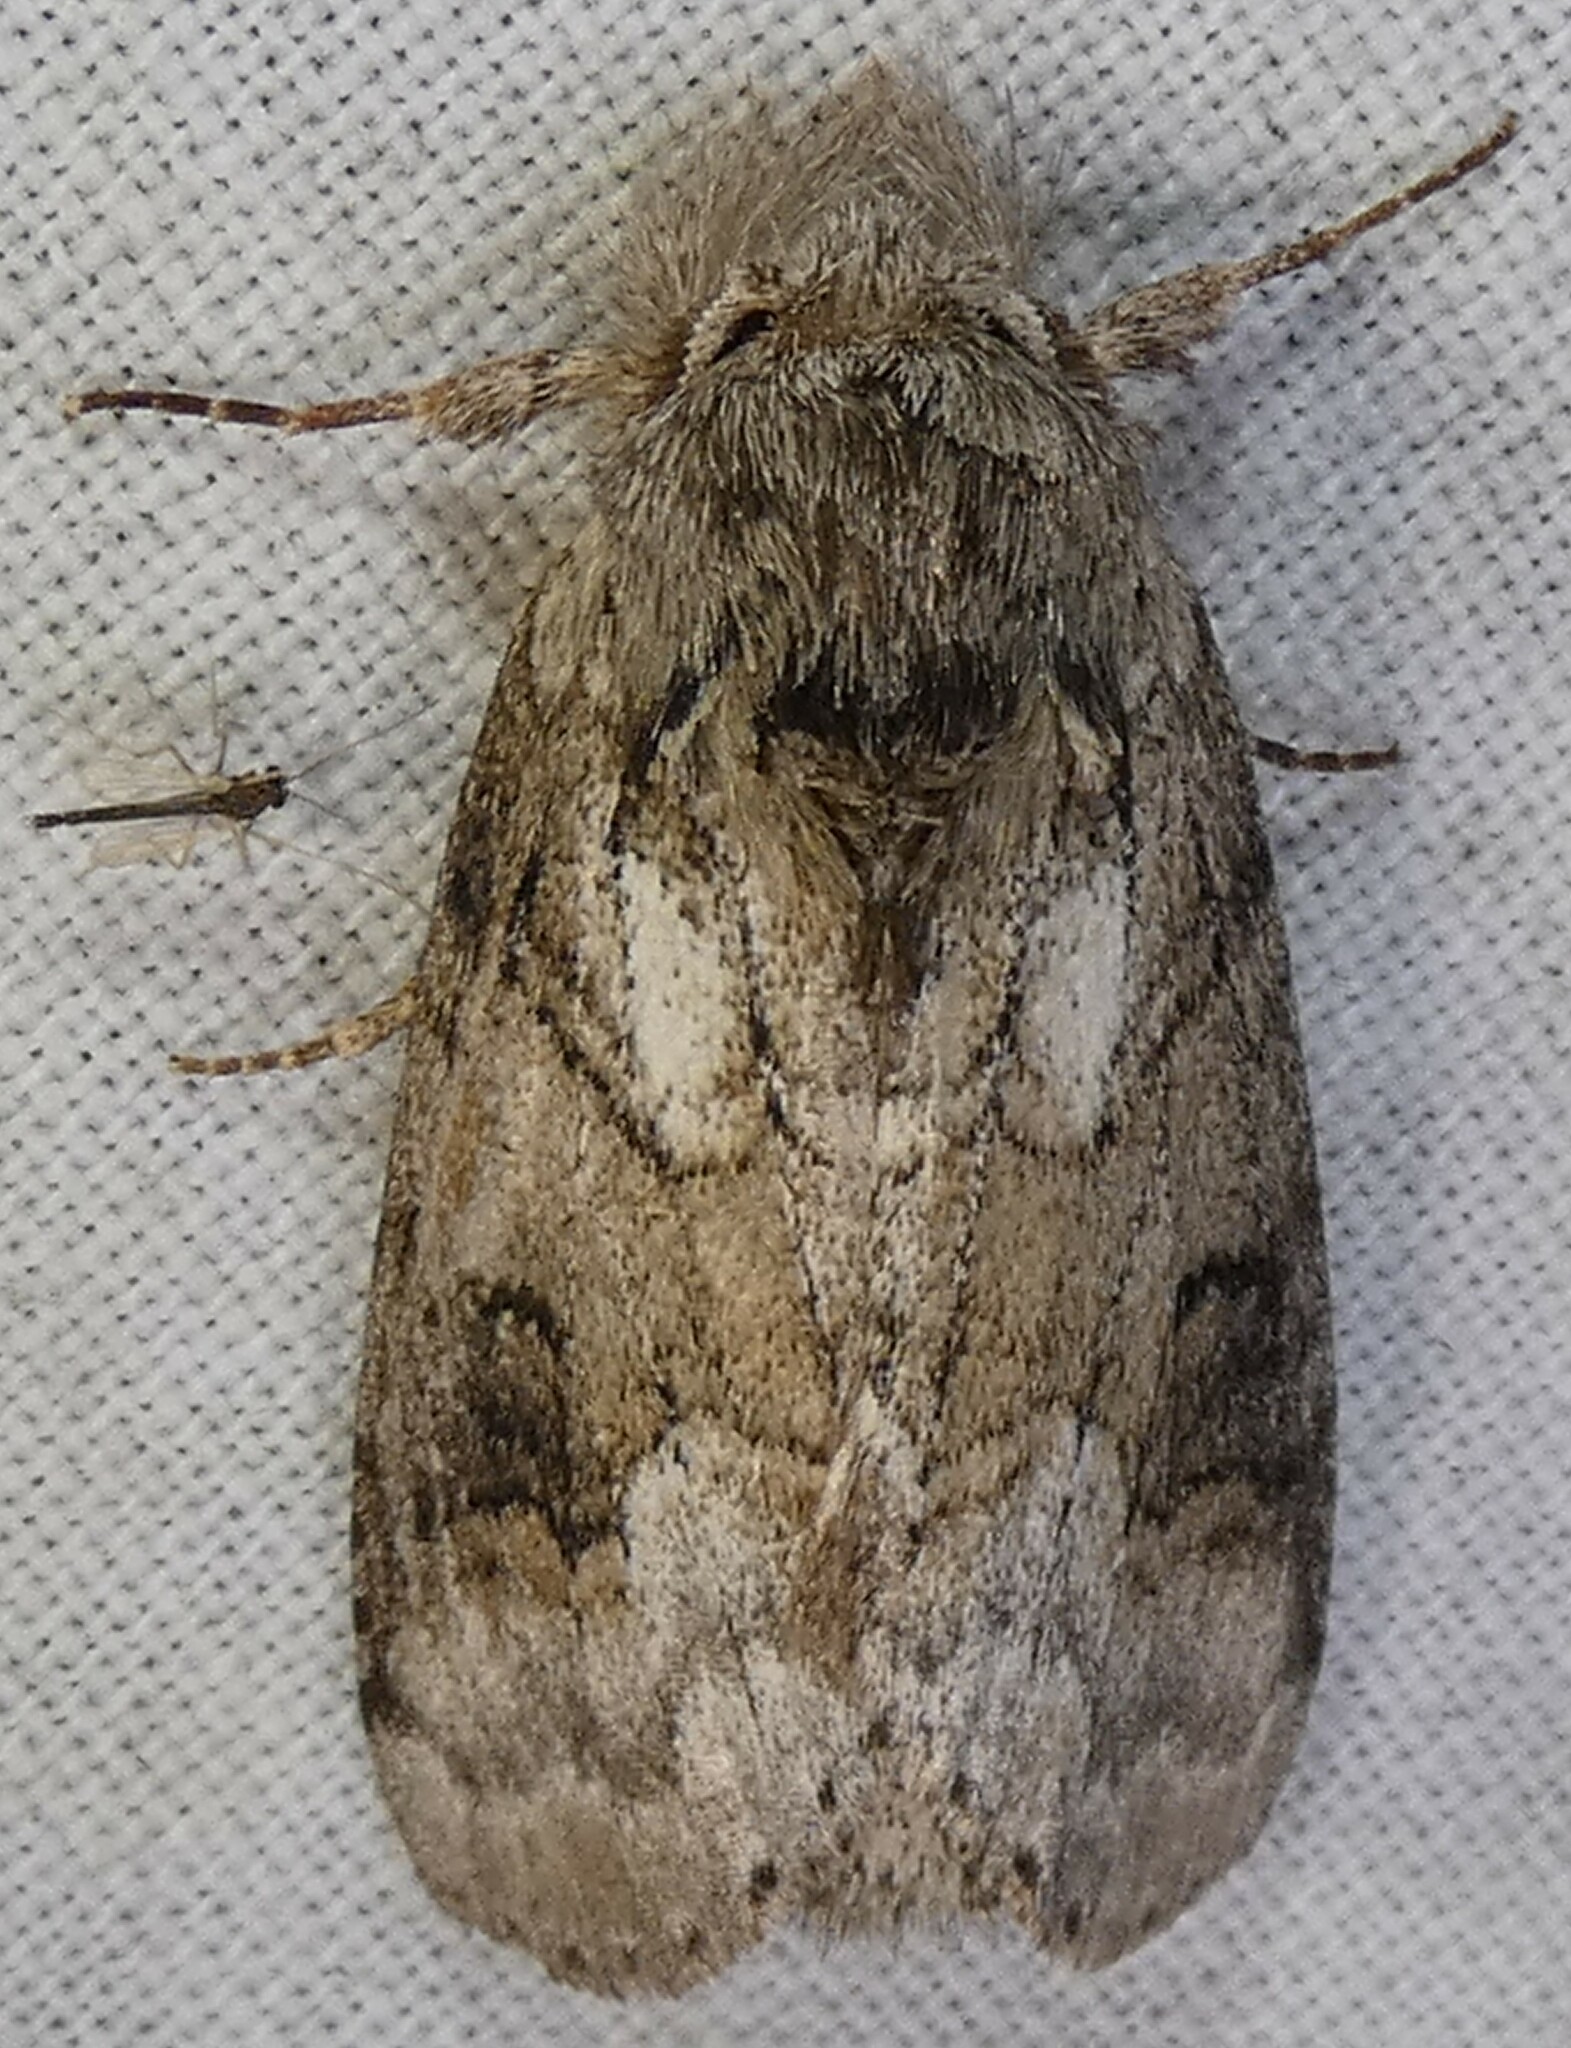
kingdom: Animalia
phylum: Arthropoda
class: Insecta
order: Lepidoptera
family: Notodontidae
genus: Lochmaeus
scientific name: Lochmaeus bilineata
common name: Double-lined prominent
